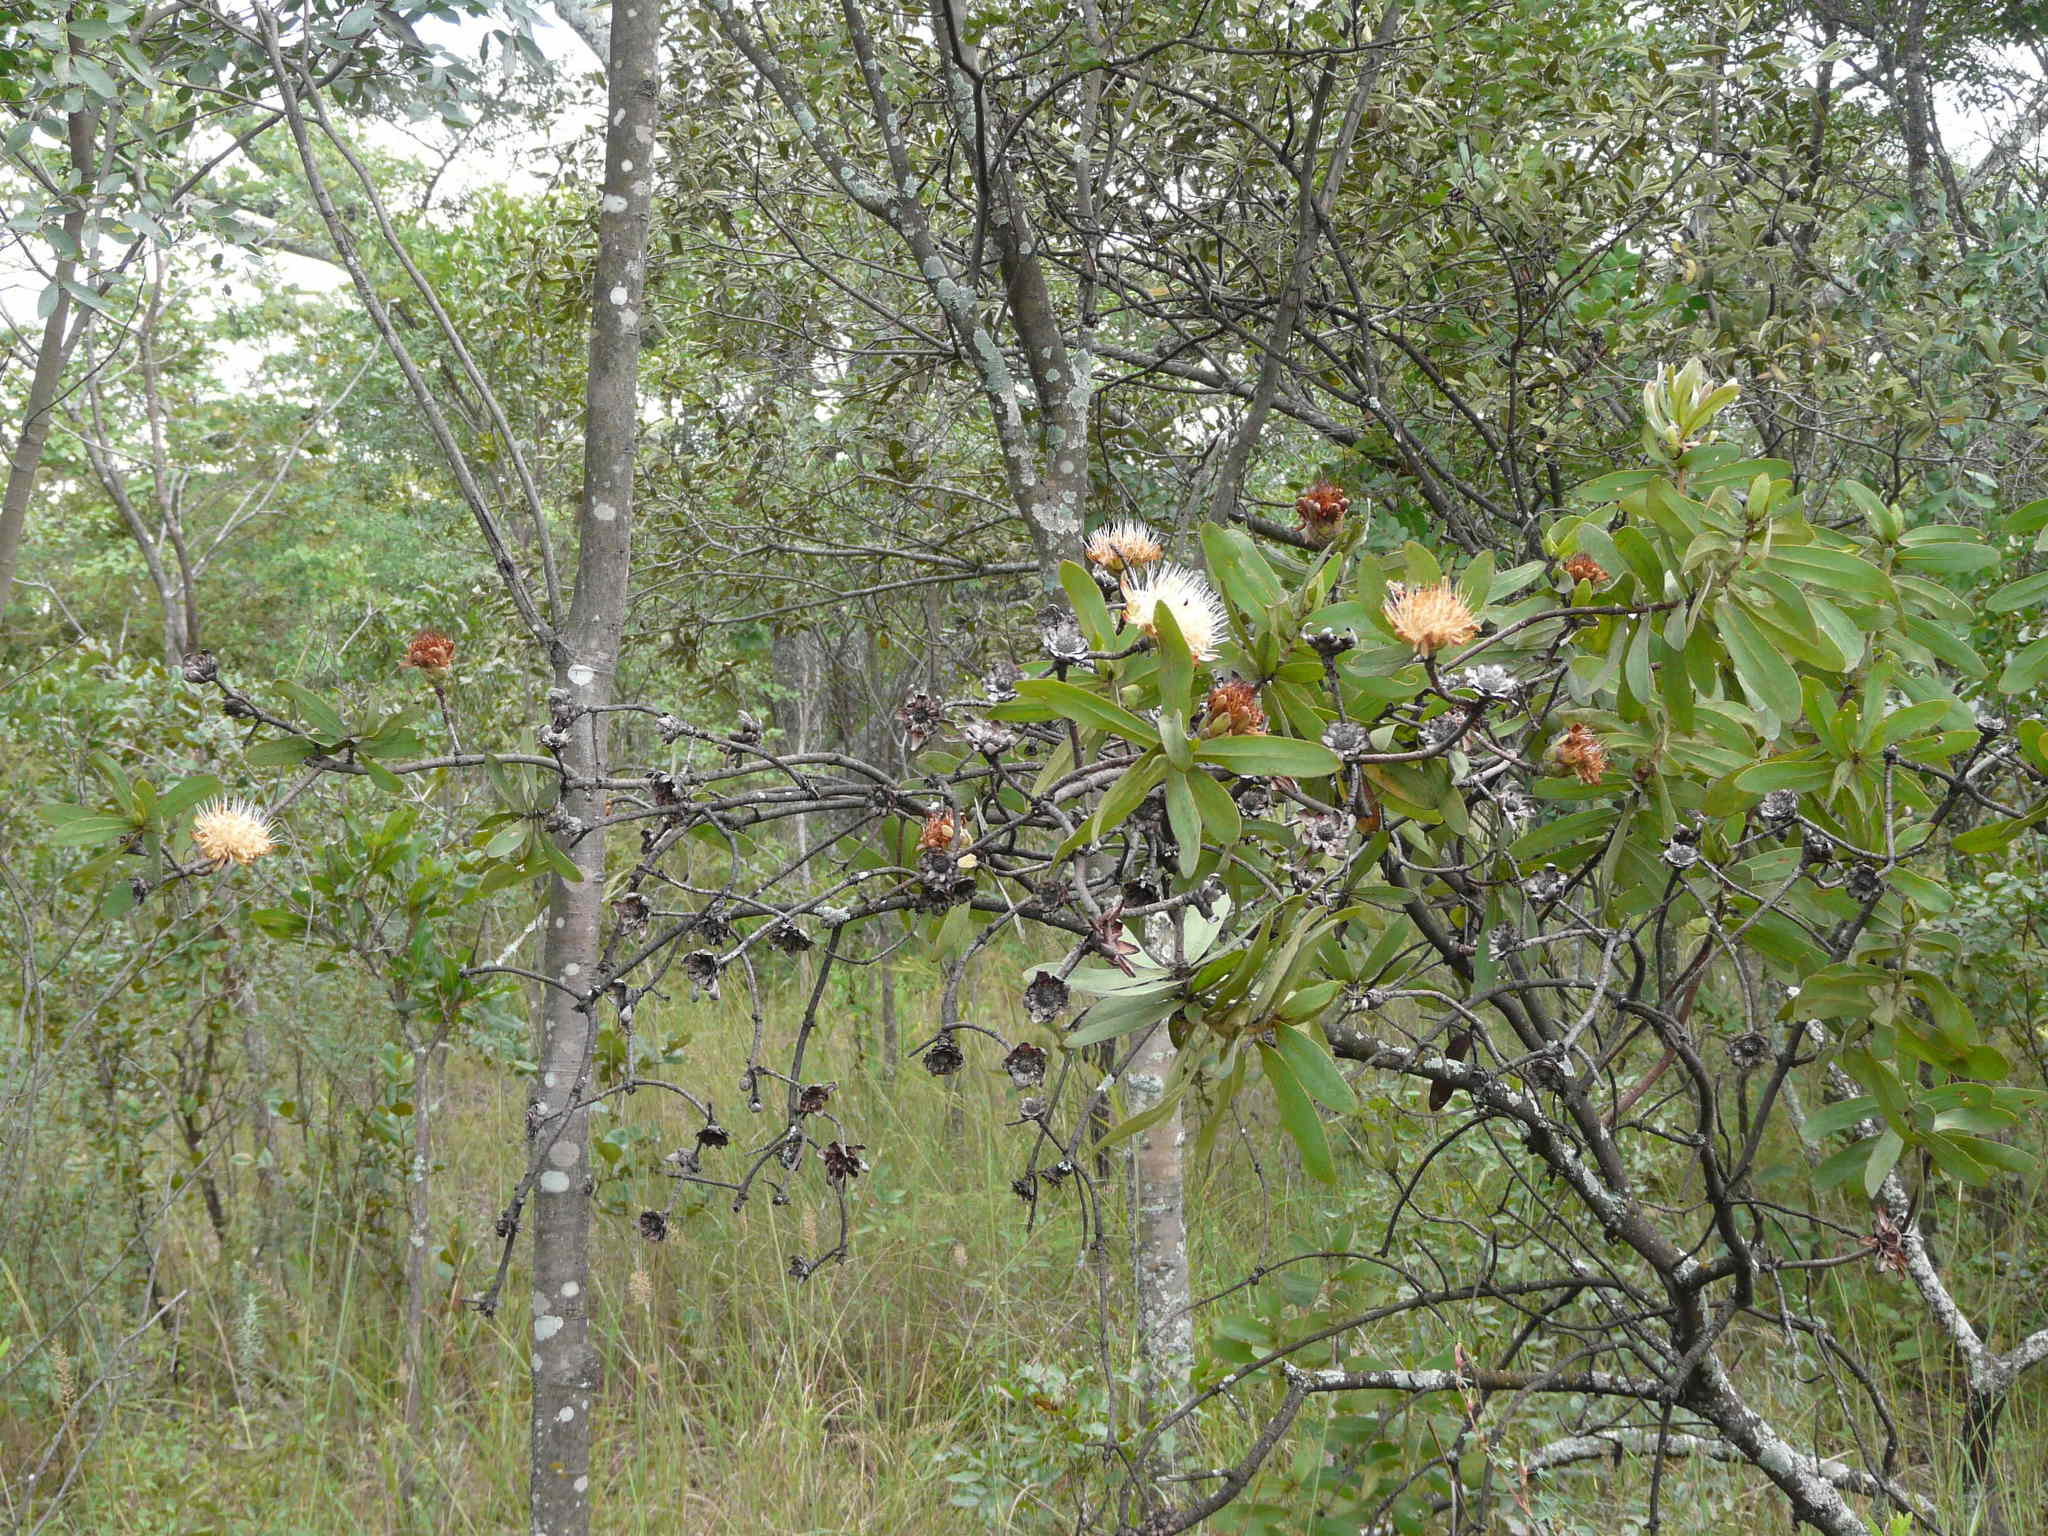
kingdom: Plantae
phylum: Tracheophyta
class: Magnoliopsida
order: Proteales
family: Proteaceae
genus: Protea
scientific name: Protea welwitschii
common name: Cluster-head protea
